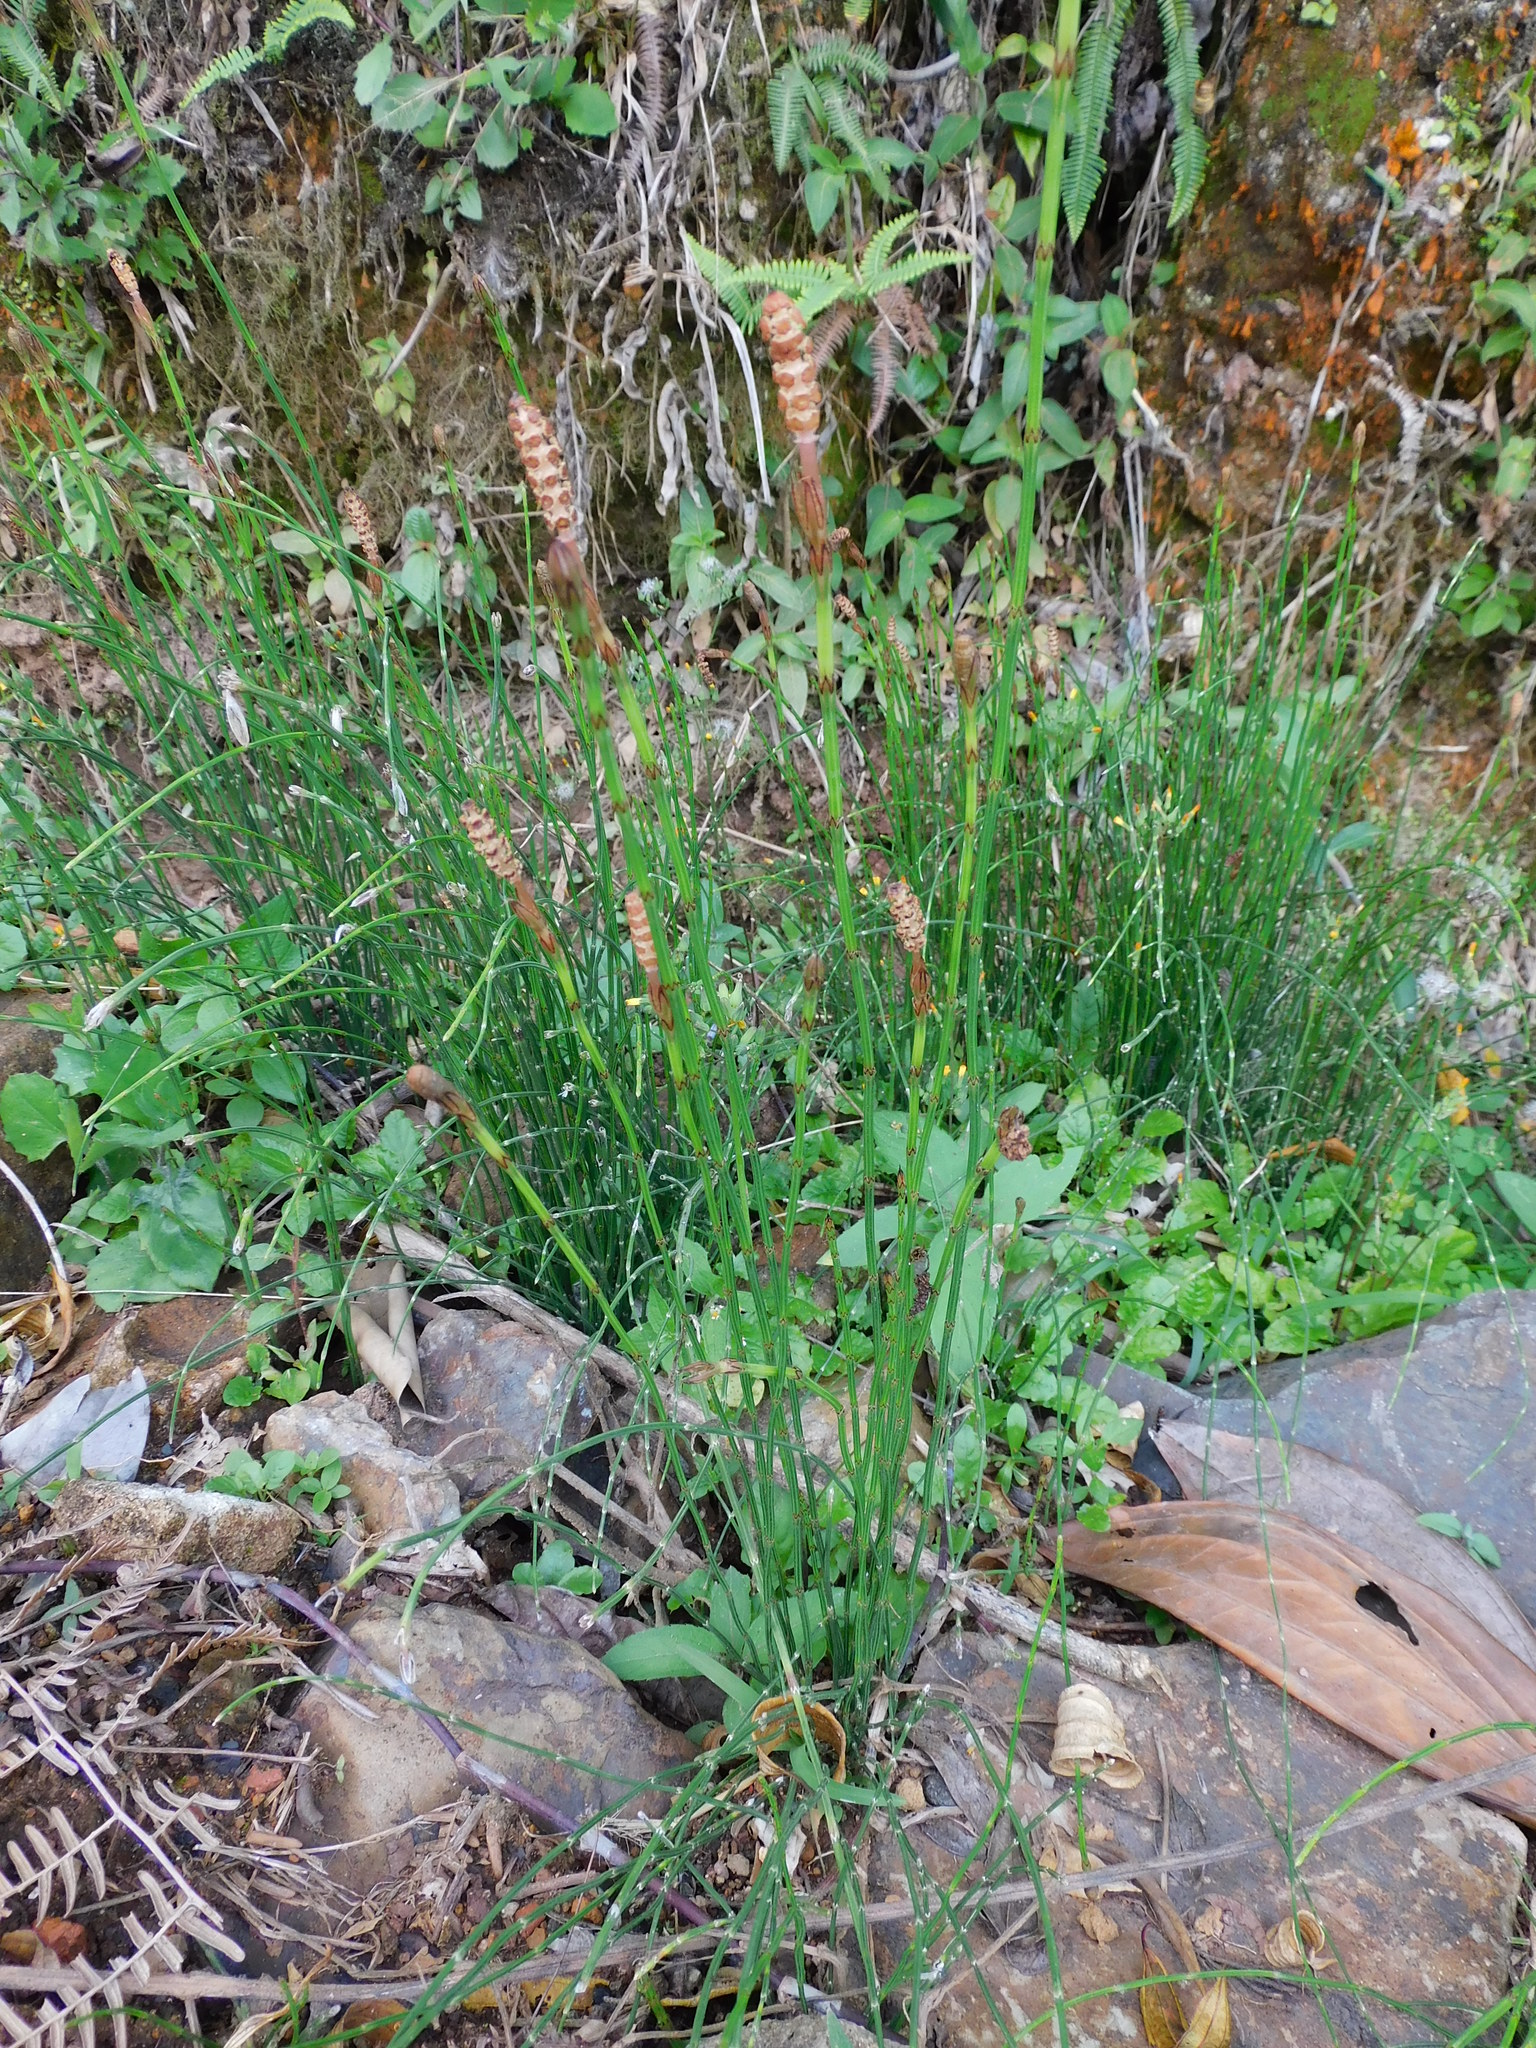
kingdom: Plantae
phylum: Tracheophyta
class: Polypodiopsida
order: Equisetales
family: Equisetaceae
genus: Equisetum
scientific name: Equisetum bogotense
